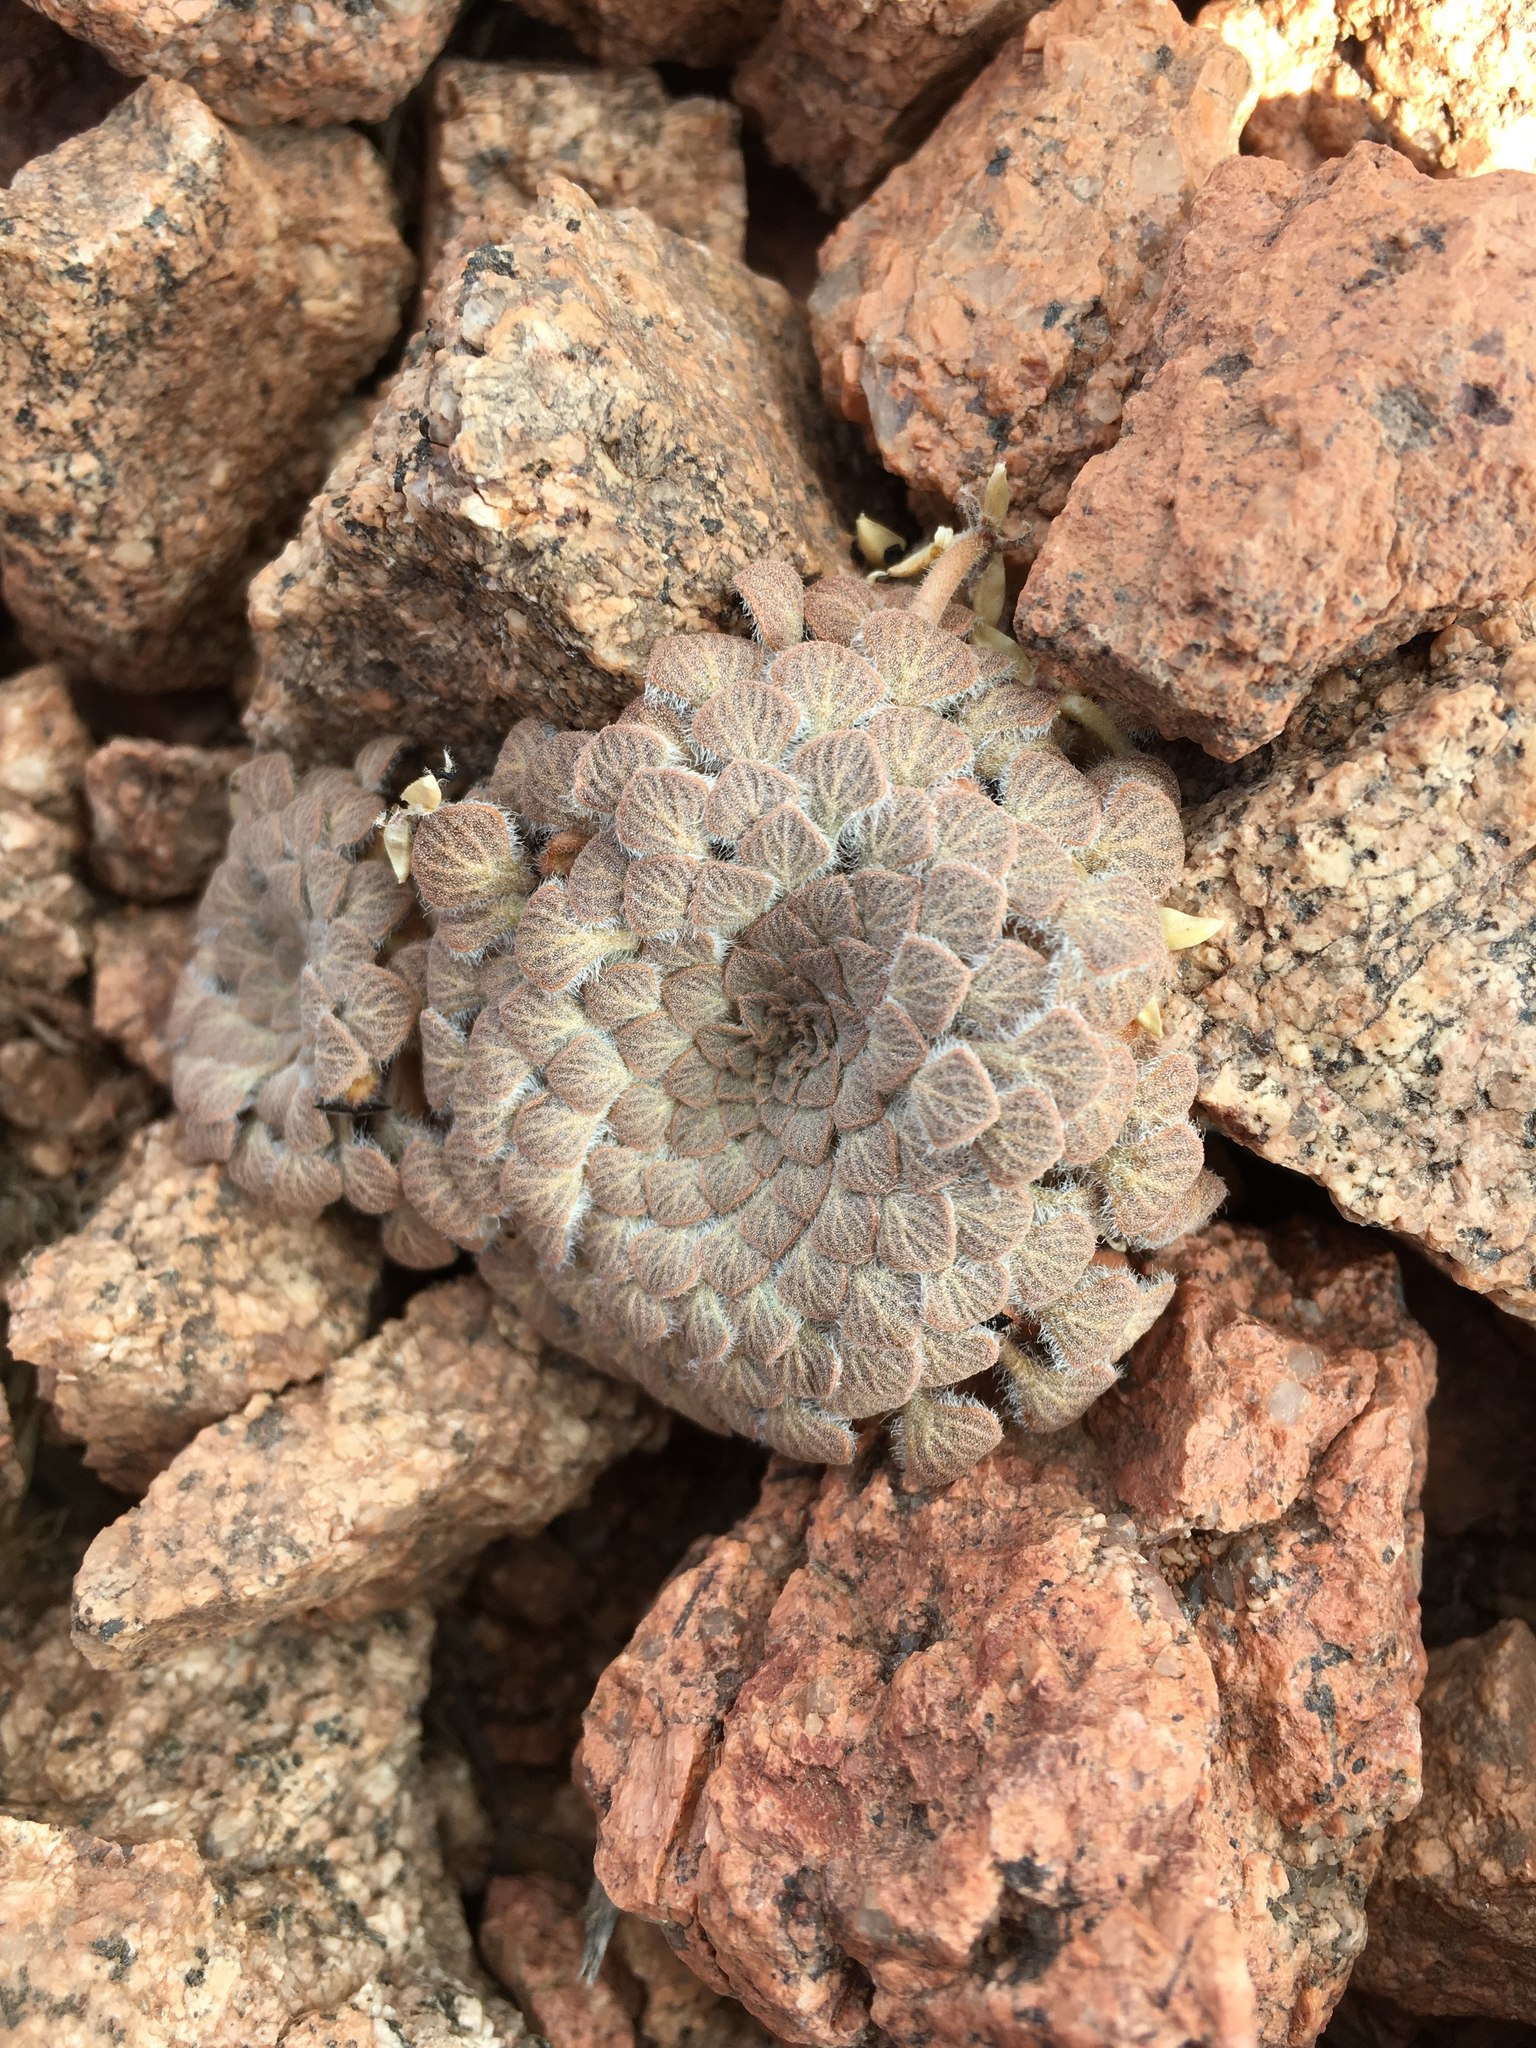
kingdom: Plantae
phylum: Tracheophyta
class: Magnoliopsida
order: Malpighiales
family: Violaceae
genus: Viola
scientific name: Viola montagnei
